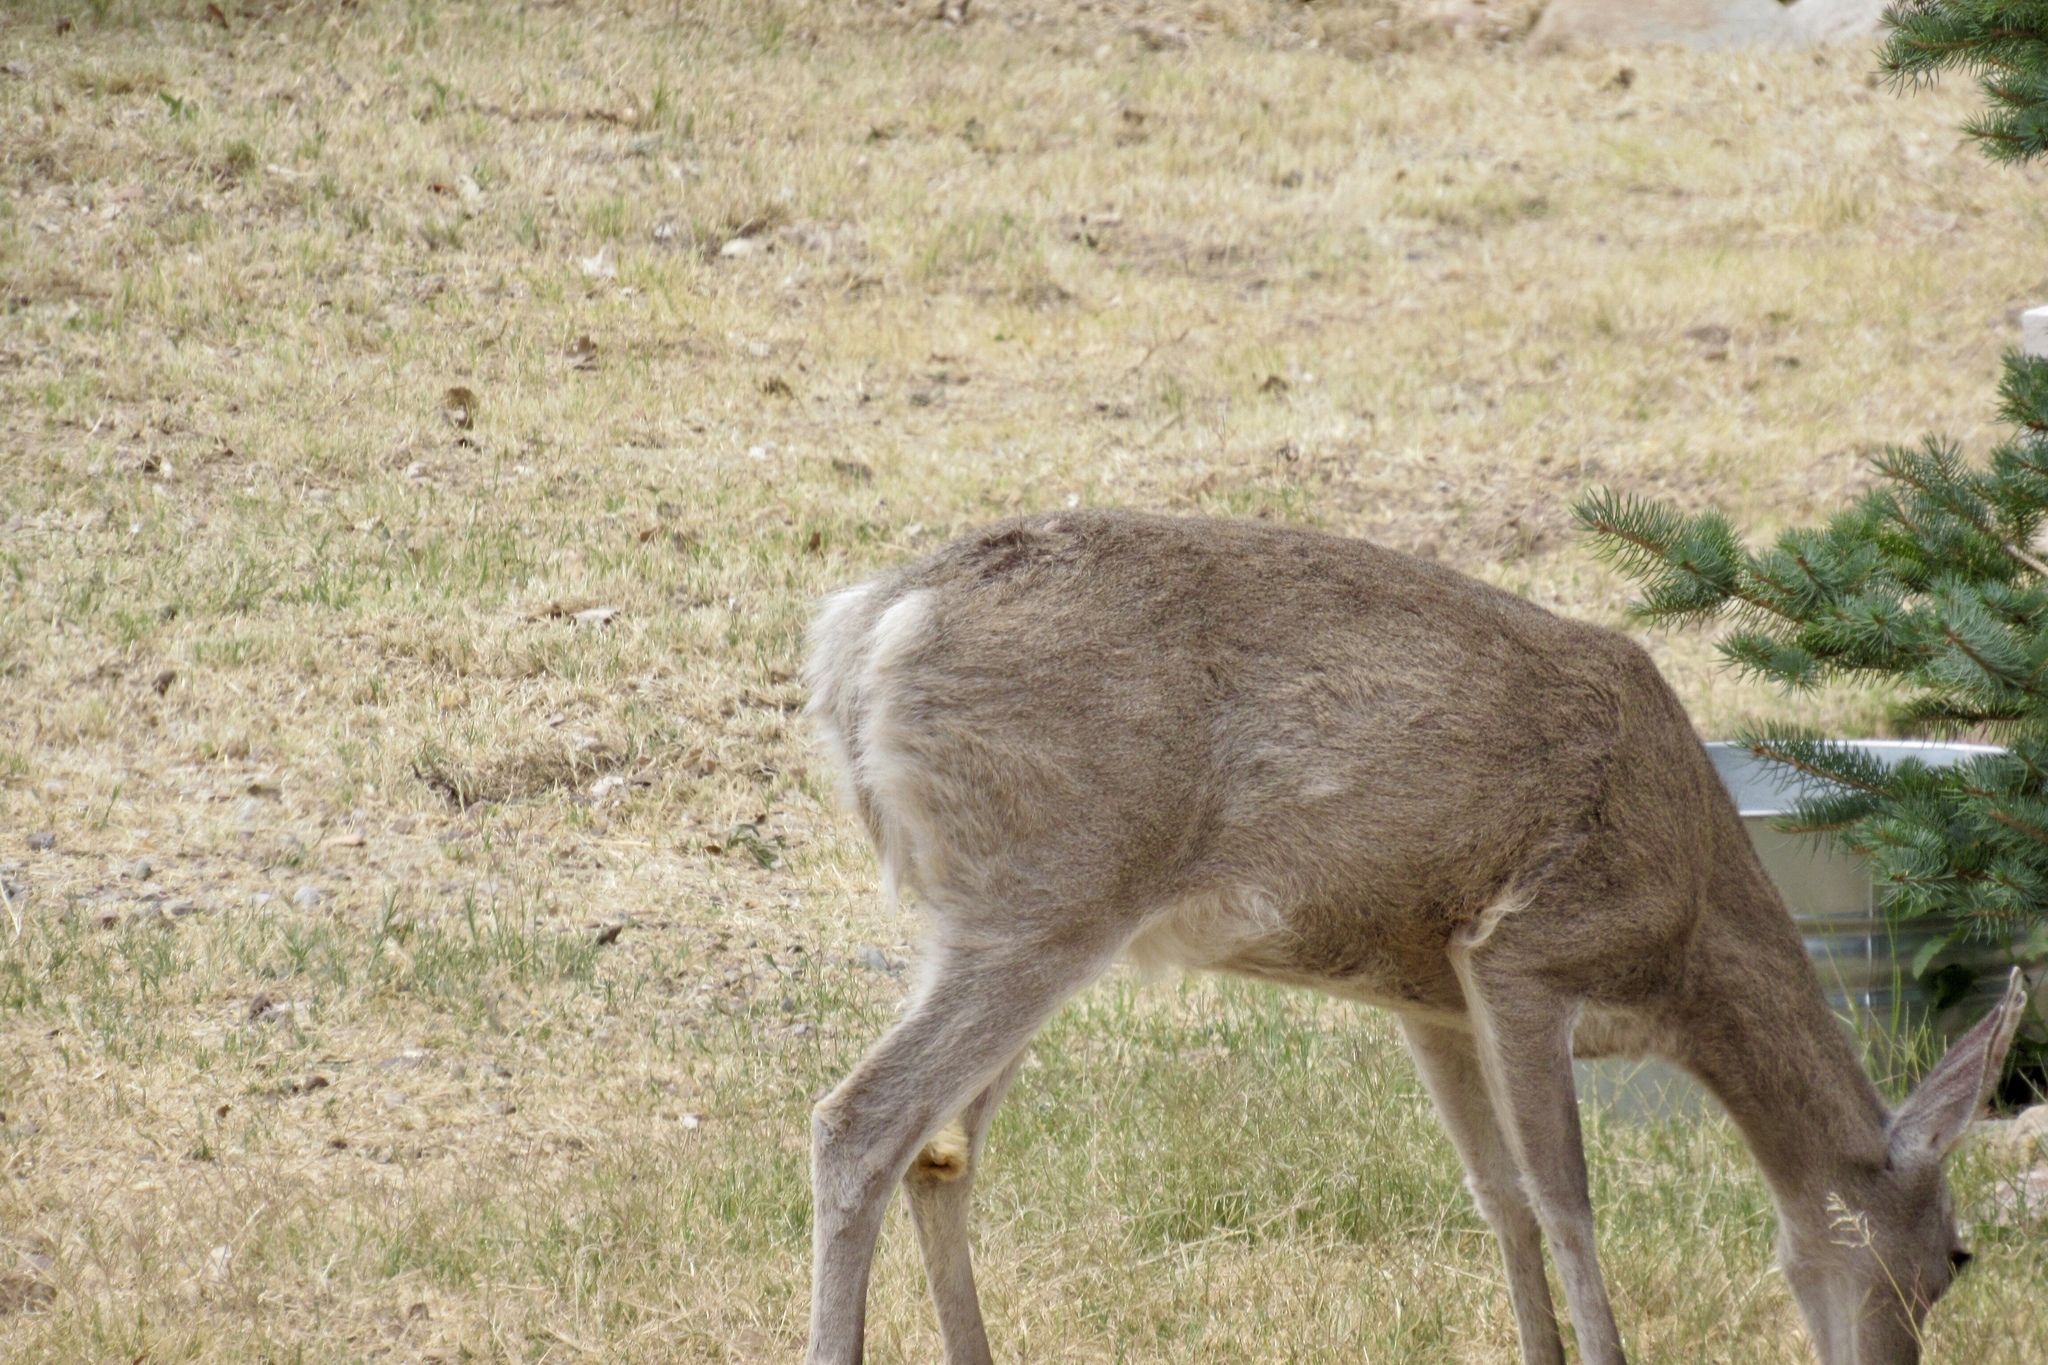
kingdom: Animalia
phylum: Chordata
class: Mammalia
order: Artiodactyla
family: Cervidae
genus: Odocoileus
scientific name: Odocoileus virginianus
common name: White-tailed deer
